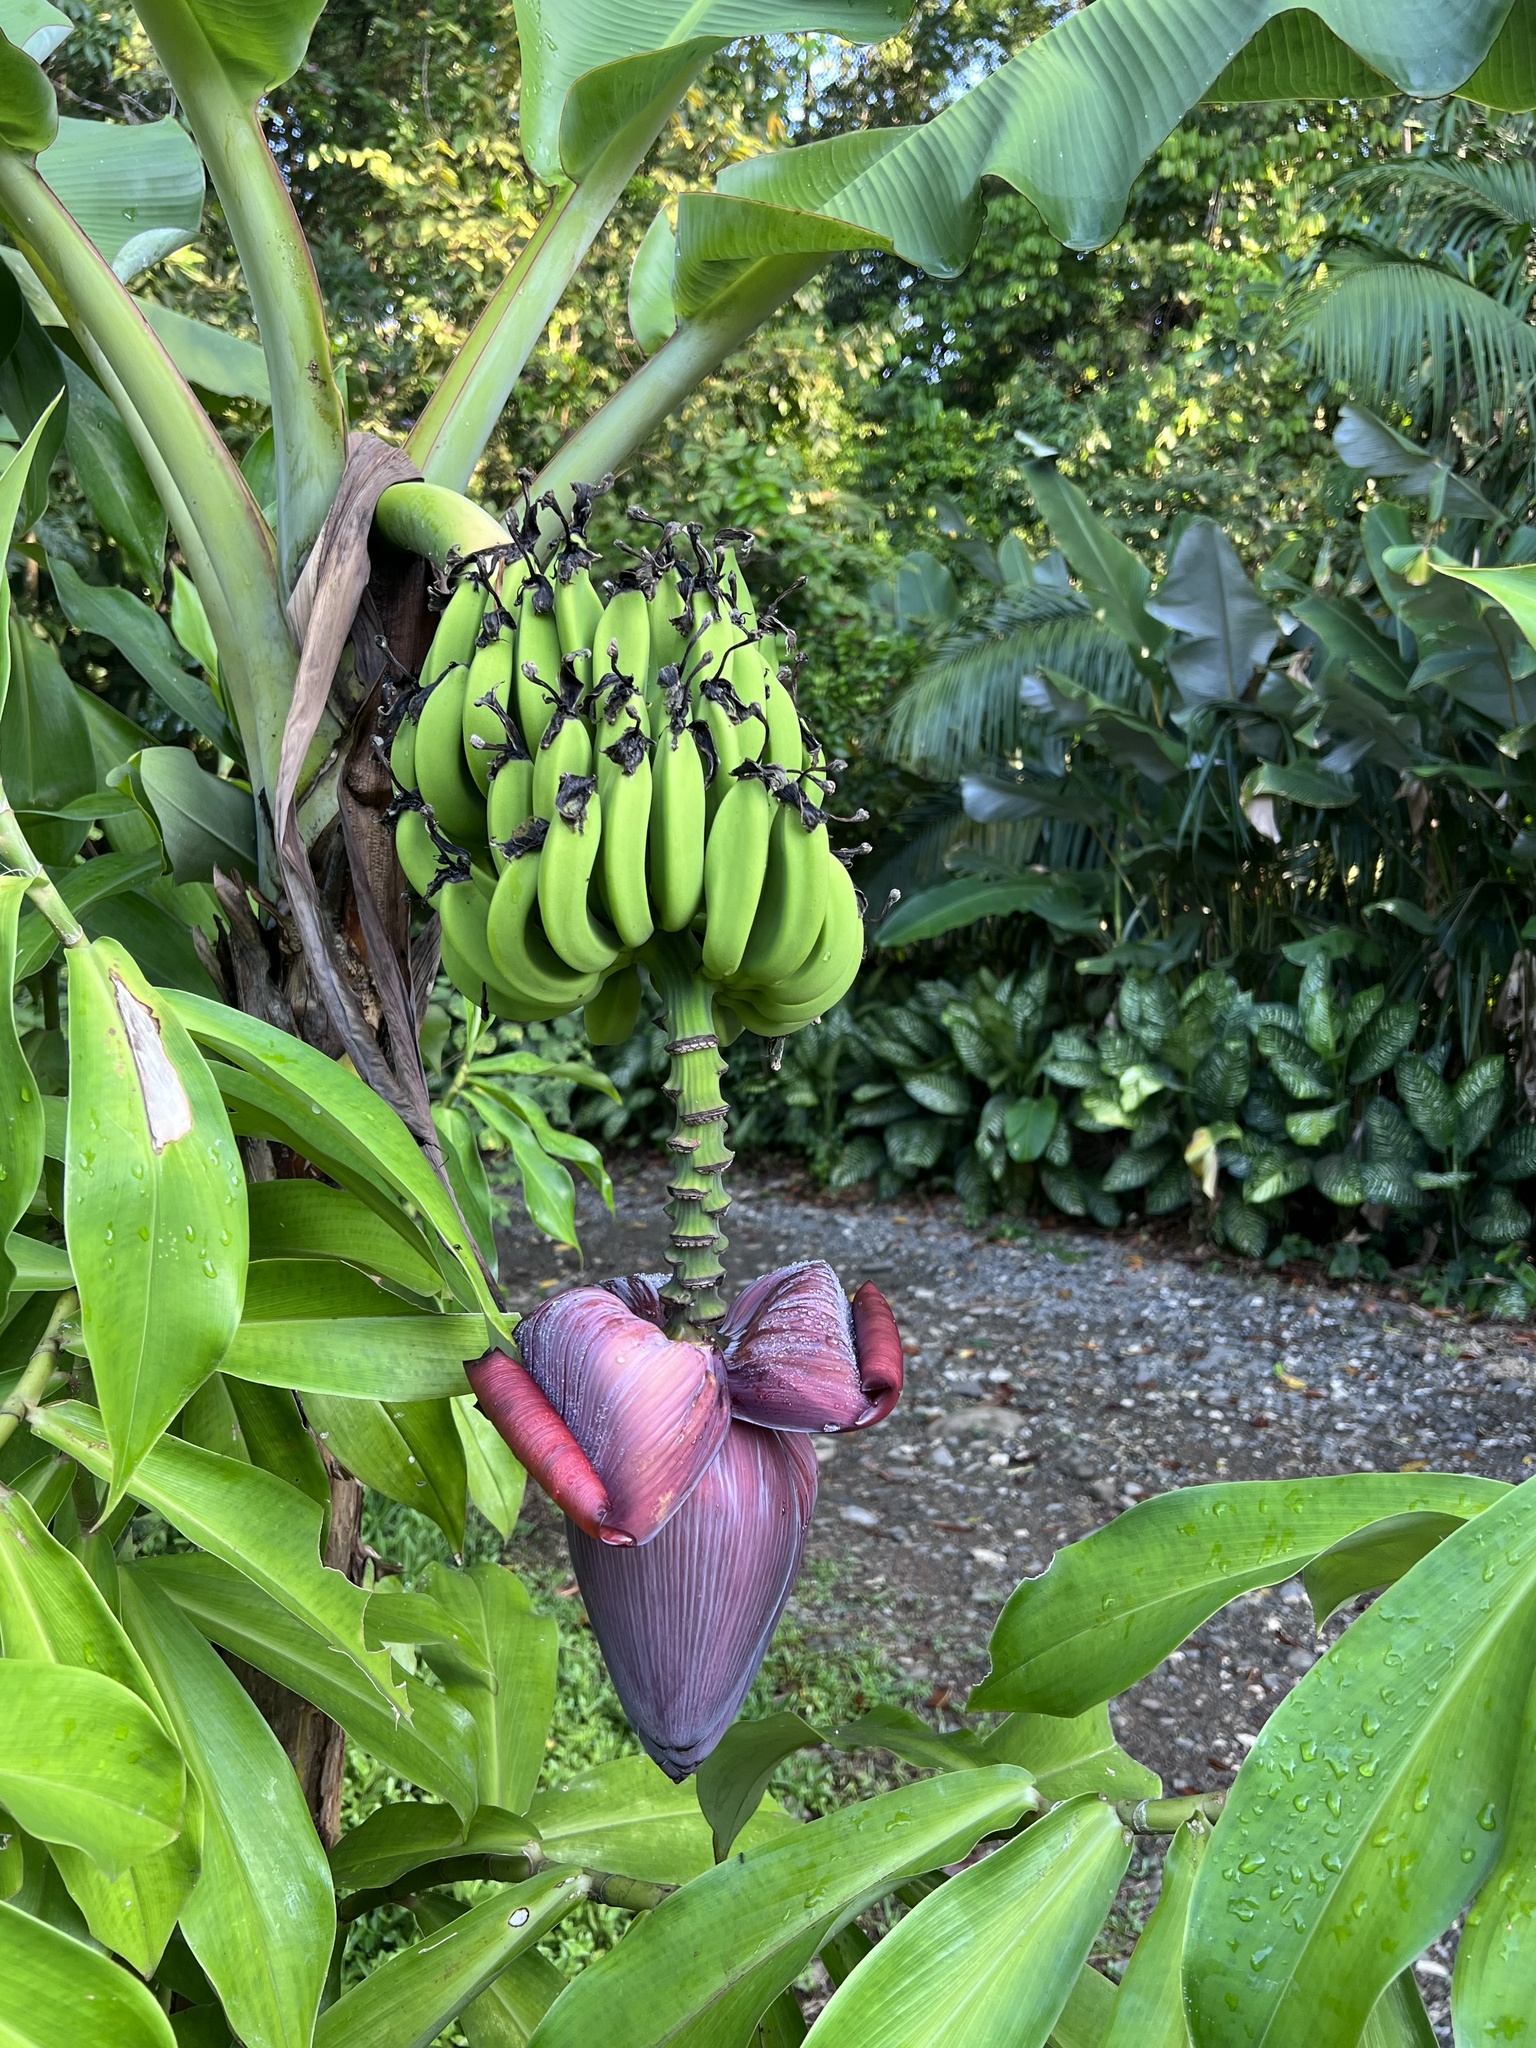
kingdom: Plantae
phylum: Tracheophyta
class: Liliopsida
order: Zingiberales
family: Musaceae
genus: Musa
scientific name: Musa acuminata
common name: Edible banana
